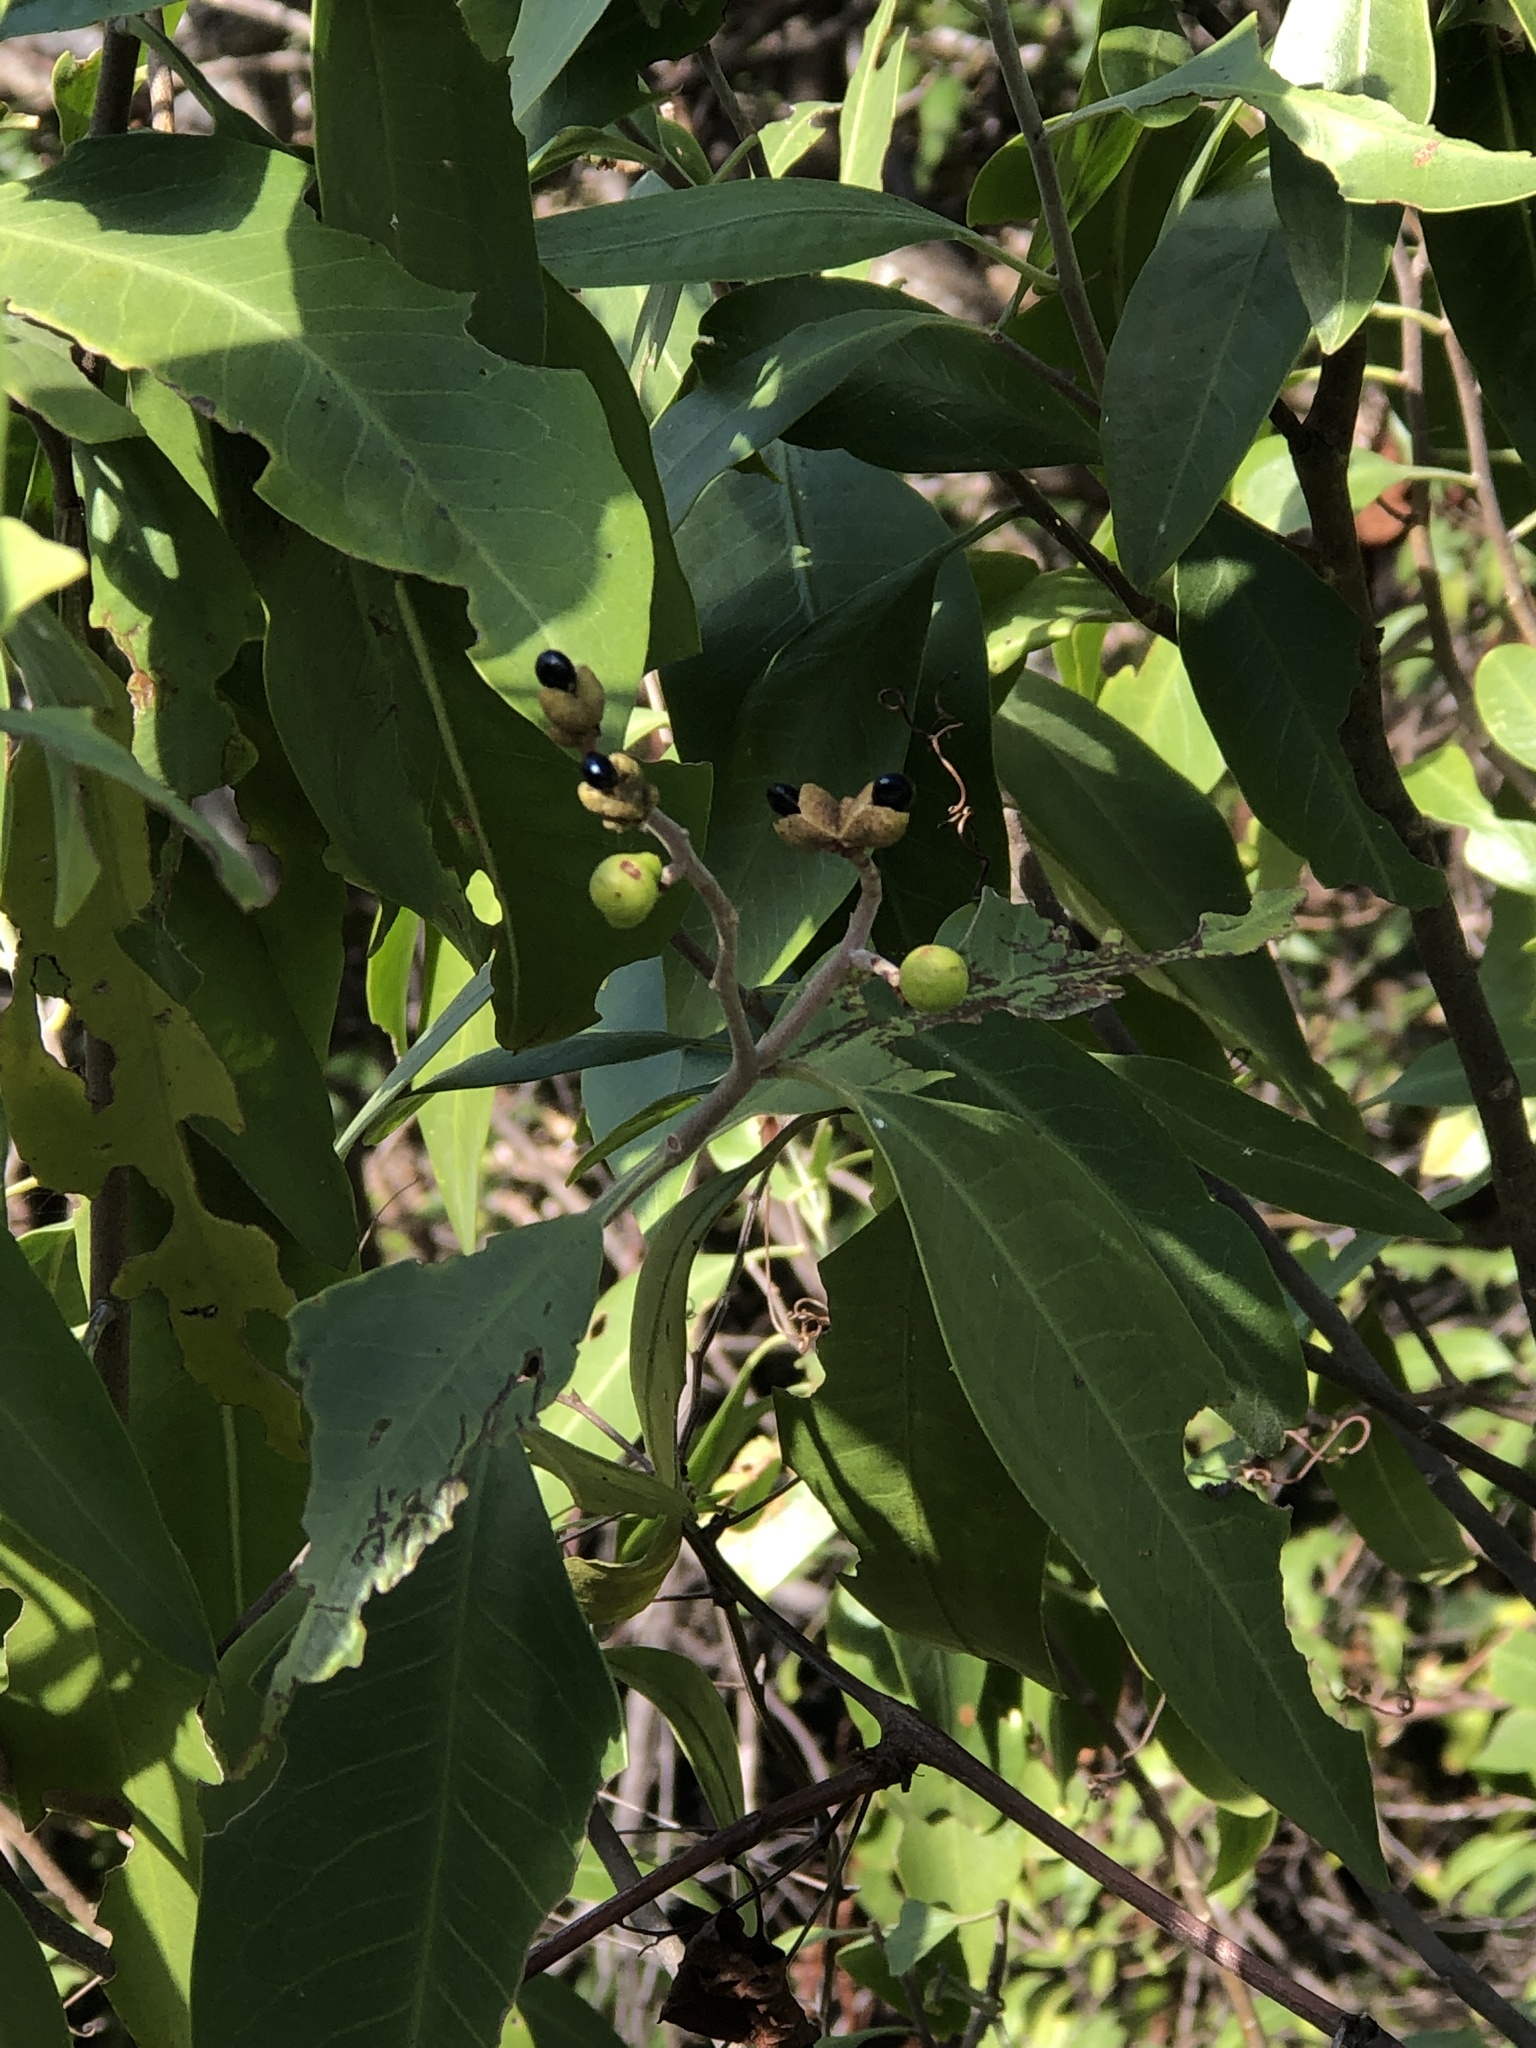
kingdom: Plantae
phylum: Tracheophyta
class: Magnoliopsida
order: Sapindales
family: Rutaceae
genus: Geijera
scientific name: Geijera salicifolia
